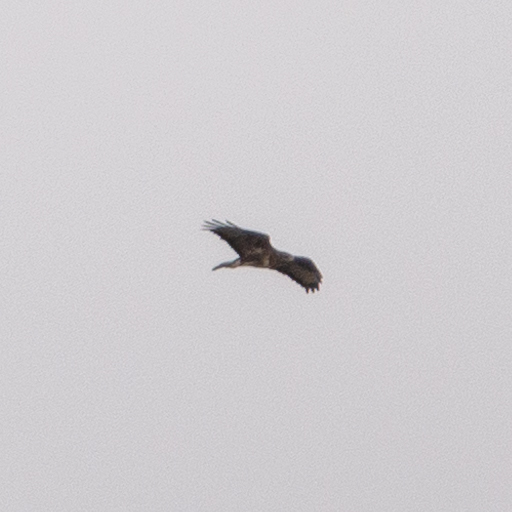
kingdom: Animalia
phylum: Chordata
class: Aves
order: Accipitriformes
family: Accipitridae
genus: Buteo
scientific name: Buteo buteo
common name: Common buzzard
